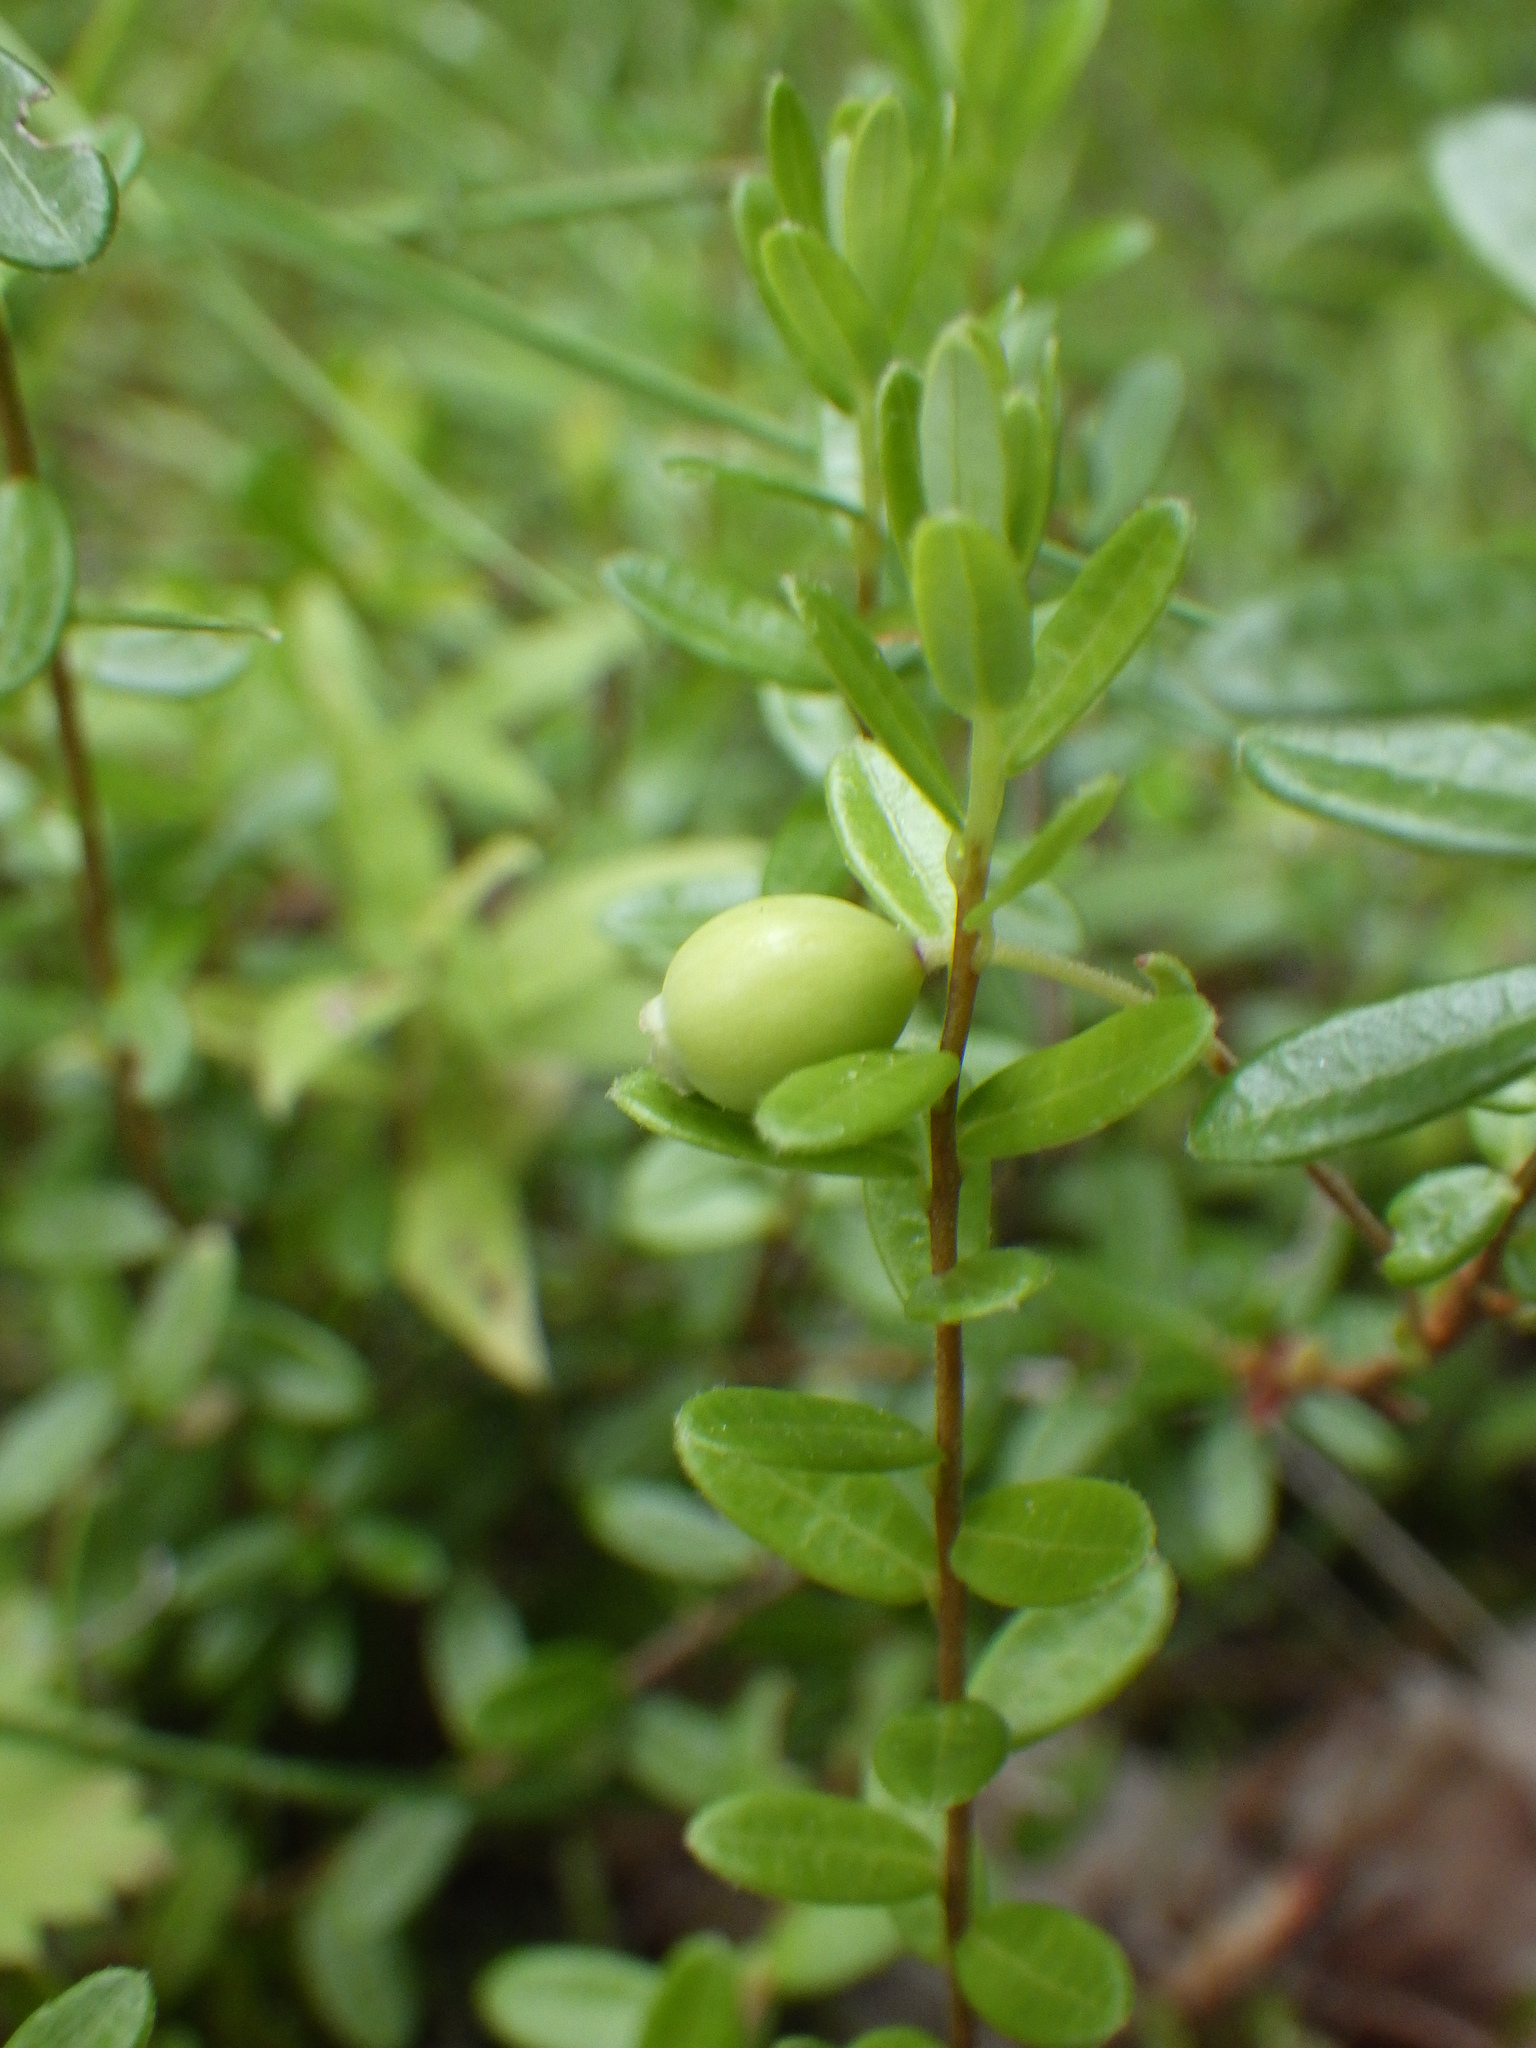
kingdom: Plantae
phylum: Tracheophyta
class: Magnoliopsida
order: Ericales
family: Ericaceae
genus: Vaccinium
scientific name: Vaccinium macrocarpon
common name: American cranberry
